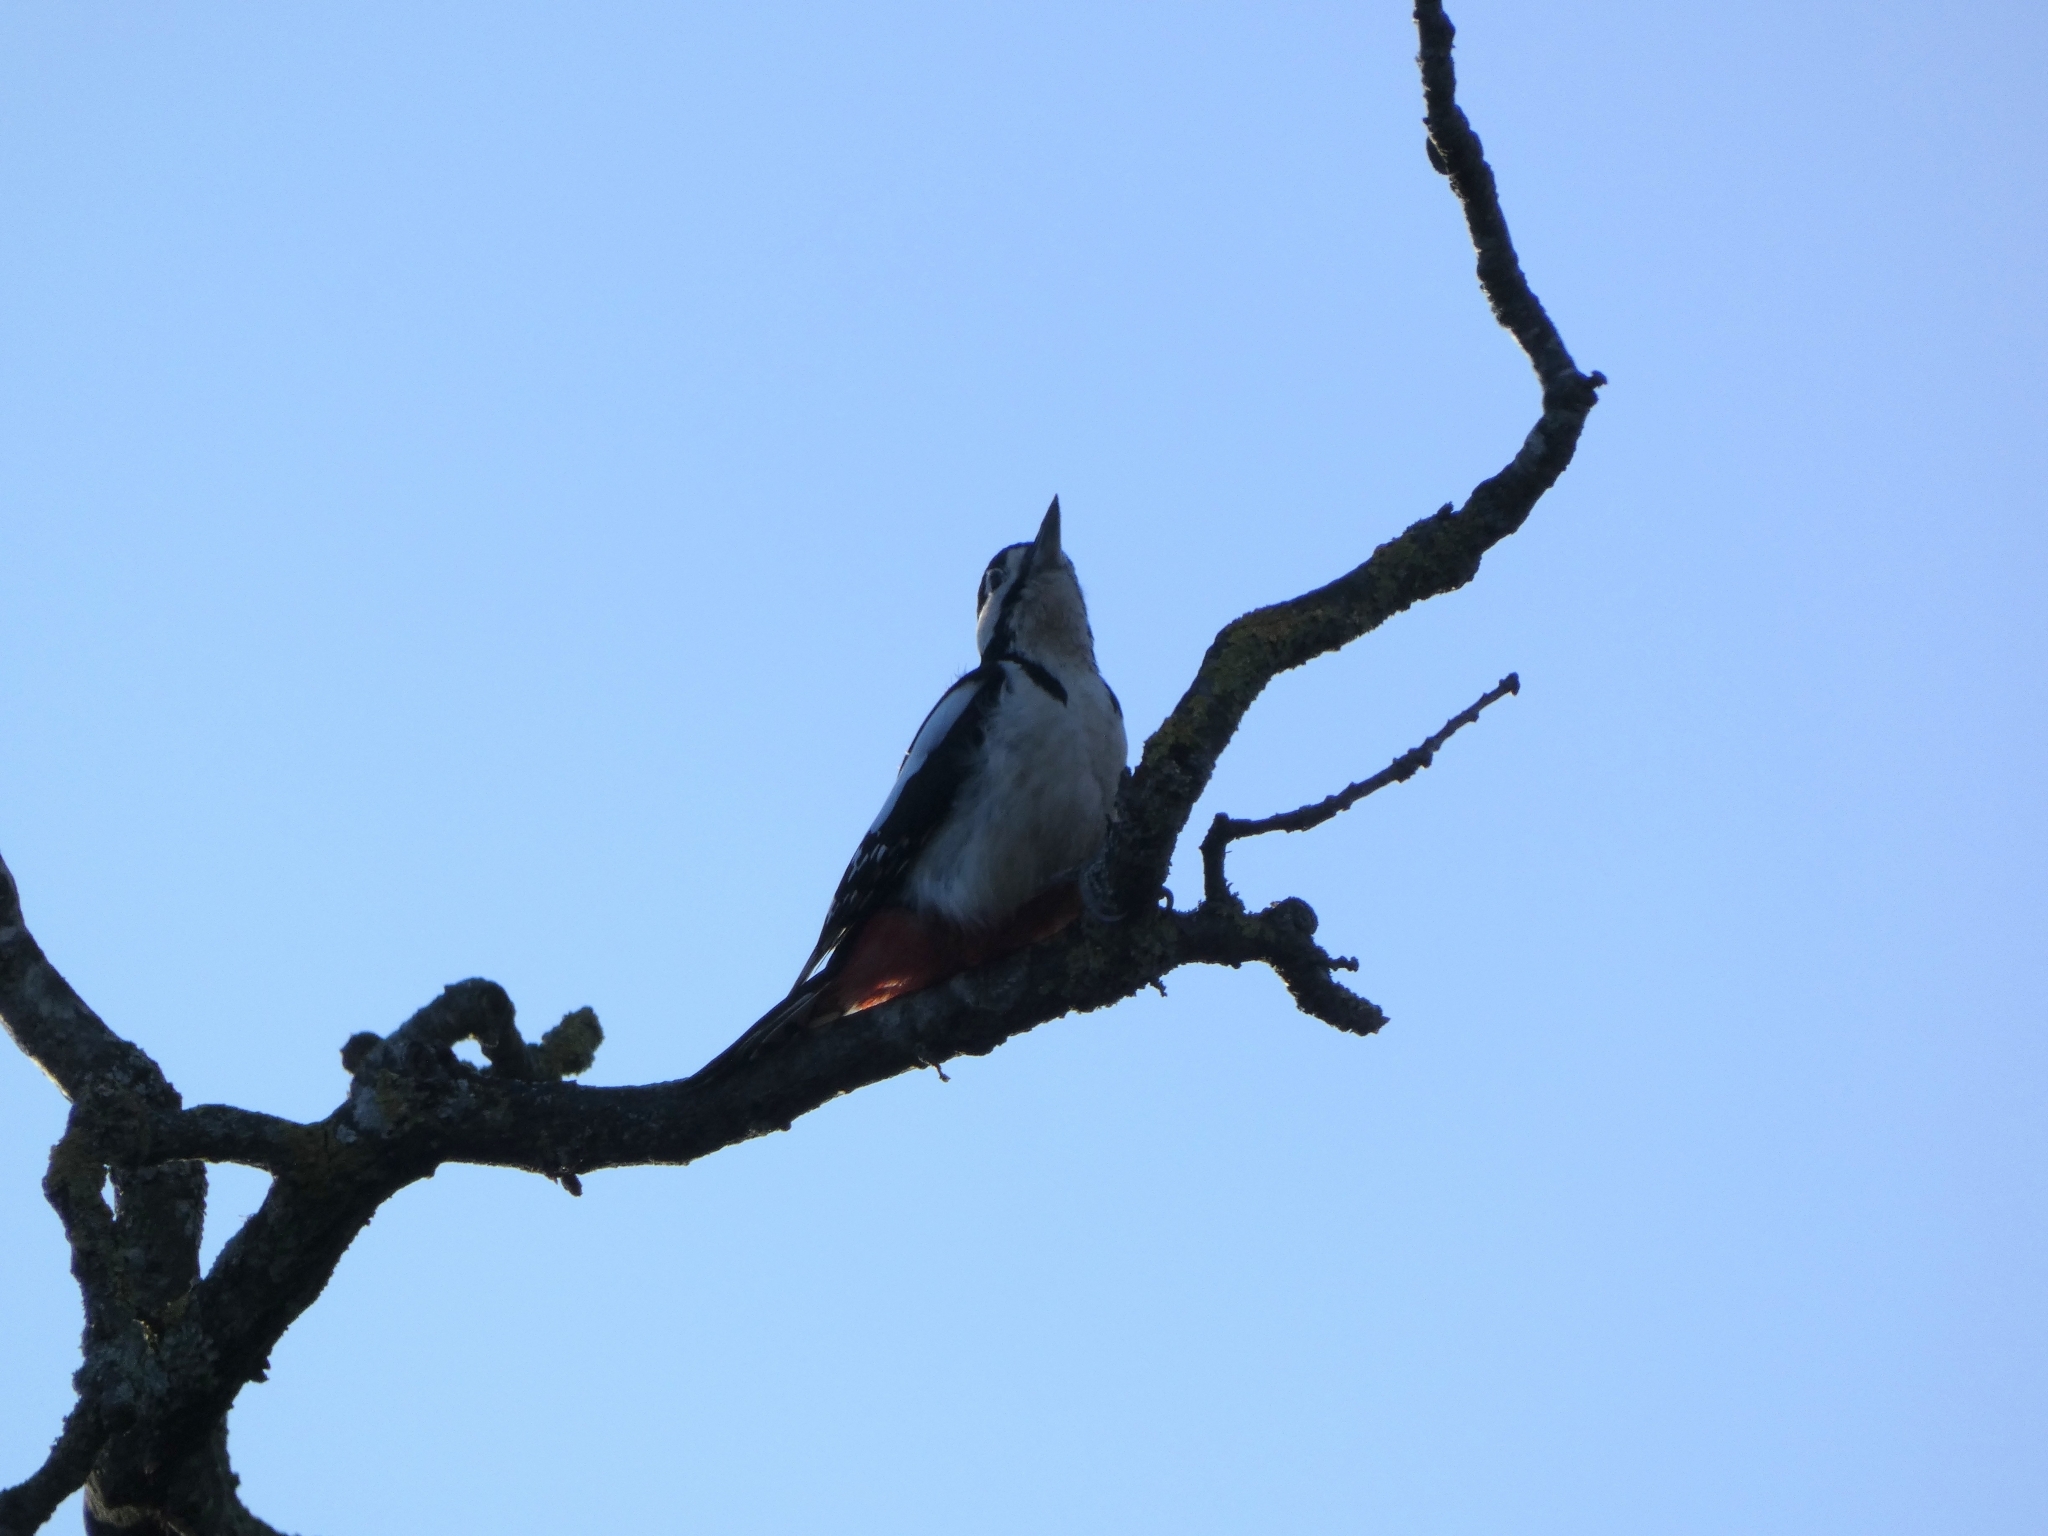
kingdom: Animalia
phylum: Chordata
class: Aves
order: Piciformes
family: Picidae
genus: Dendrocopos
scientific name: Dendrocopos major
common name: Great spotted woodpecker
